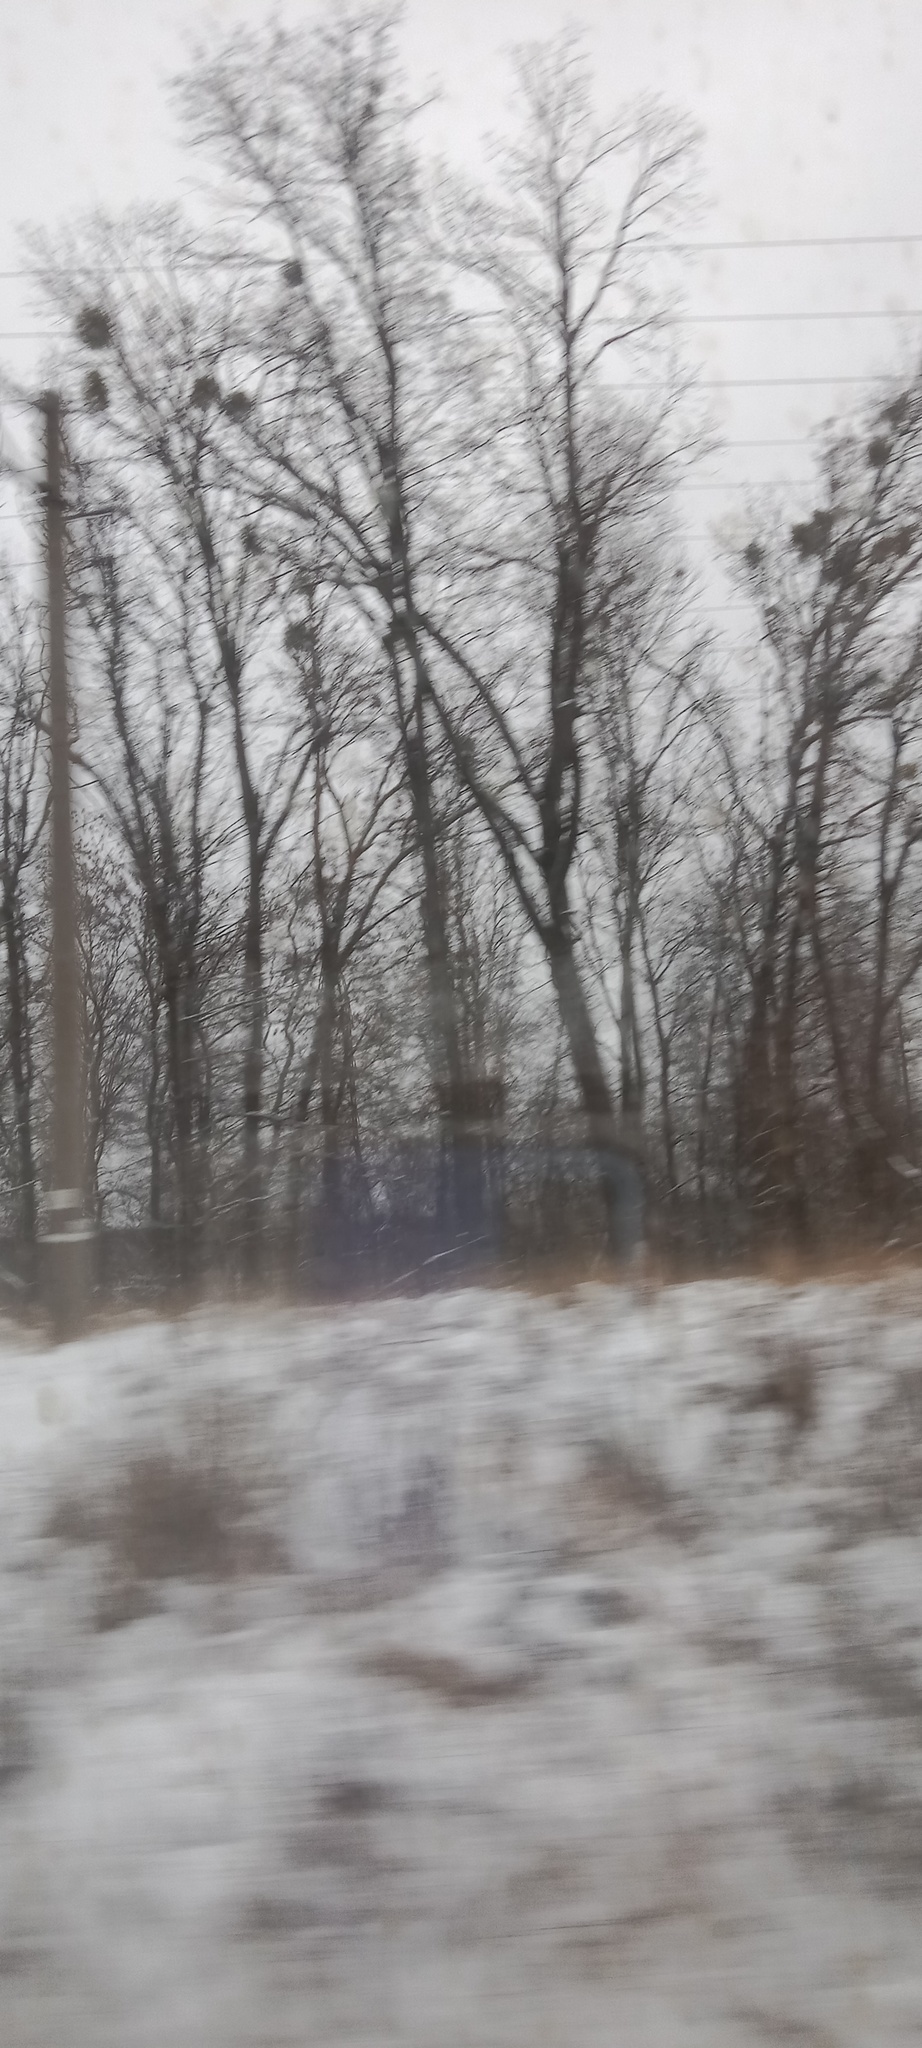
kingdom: Plantae
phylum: Tracheophyta
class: Magnoliopsida
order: Santalales
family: Viscaceae
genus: Viscum
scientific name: Viscum album
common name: Mistletoe
